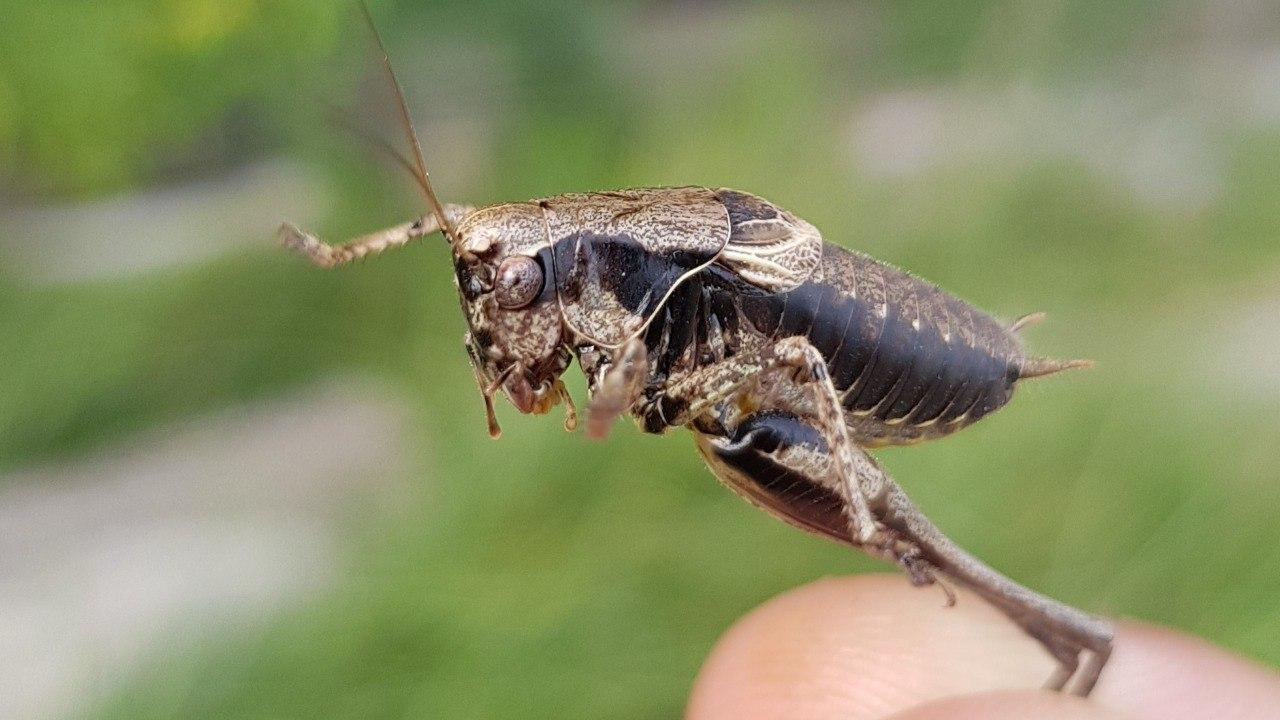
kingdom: Animalia
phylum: Arthropoda
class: Insecta
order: Orthoptera
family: Tettigoniidae
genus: Pholidoptera
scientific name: Pholidoptera griseoaptera
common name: Dark bush-cricket
